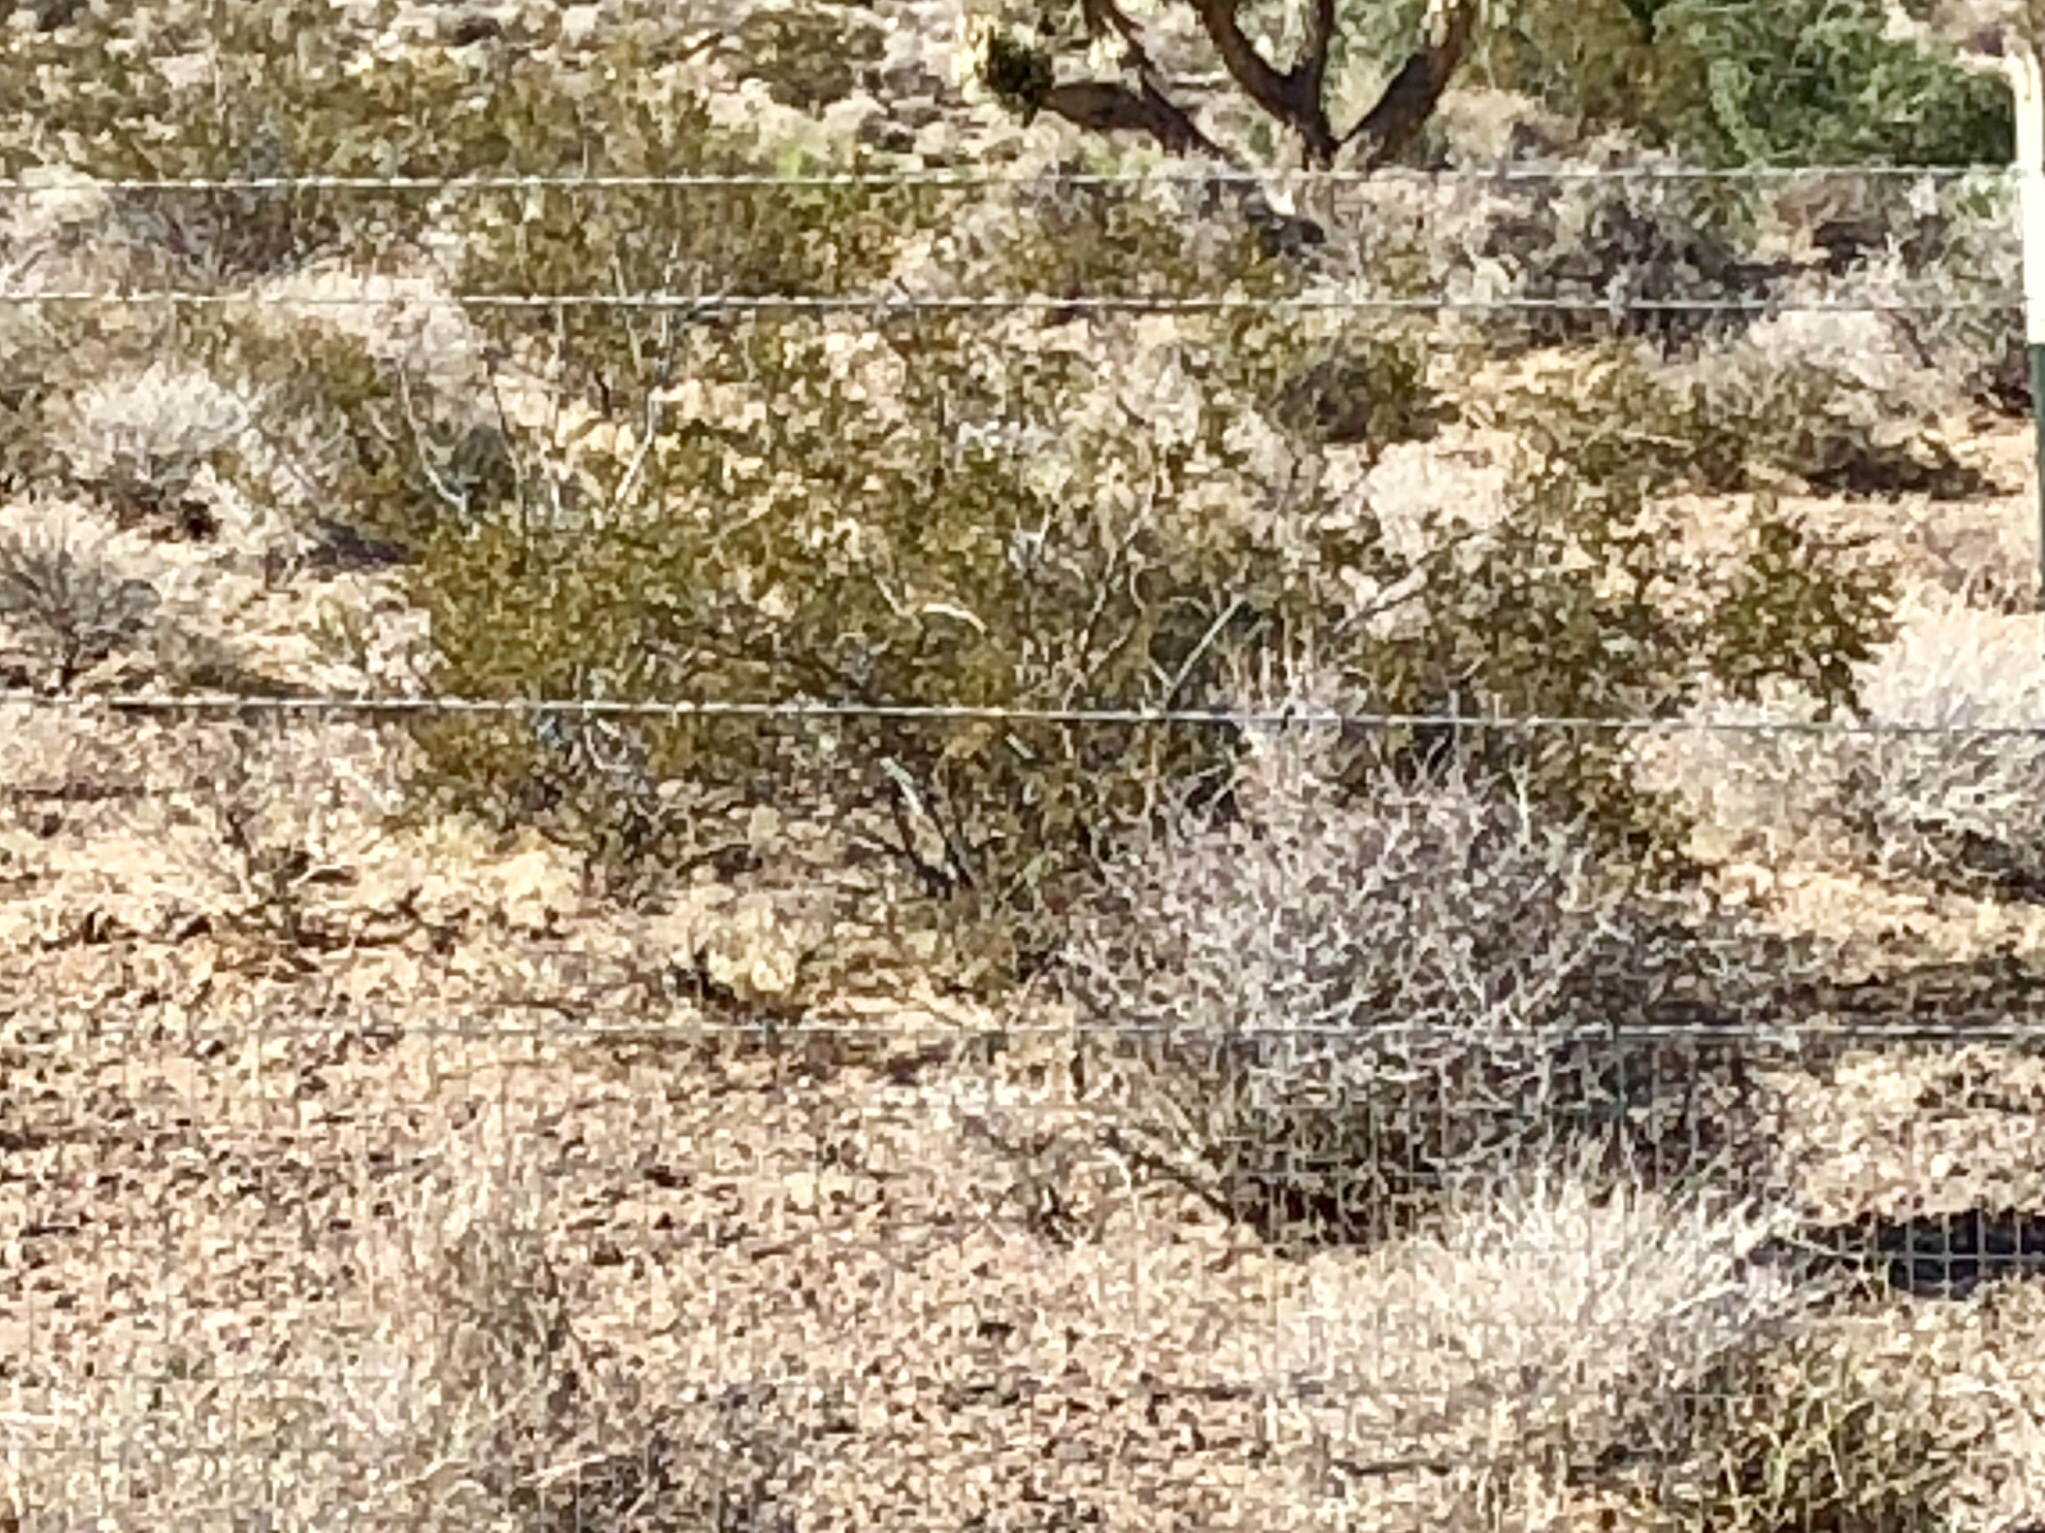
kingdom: Plantae
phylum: Tracheophyta
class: Magnoliopsida
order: Zygophyllales
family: Zygophyllaceae
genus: Larrea
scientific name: Larrea tridentata
